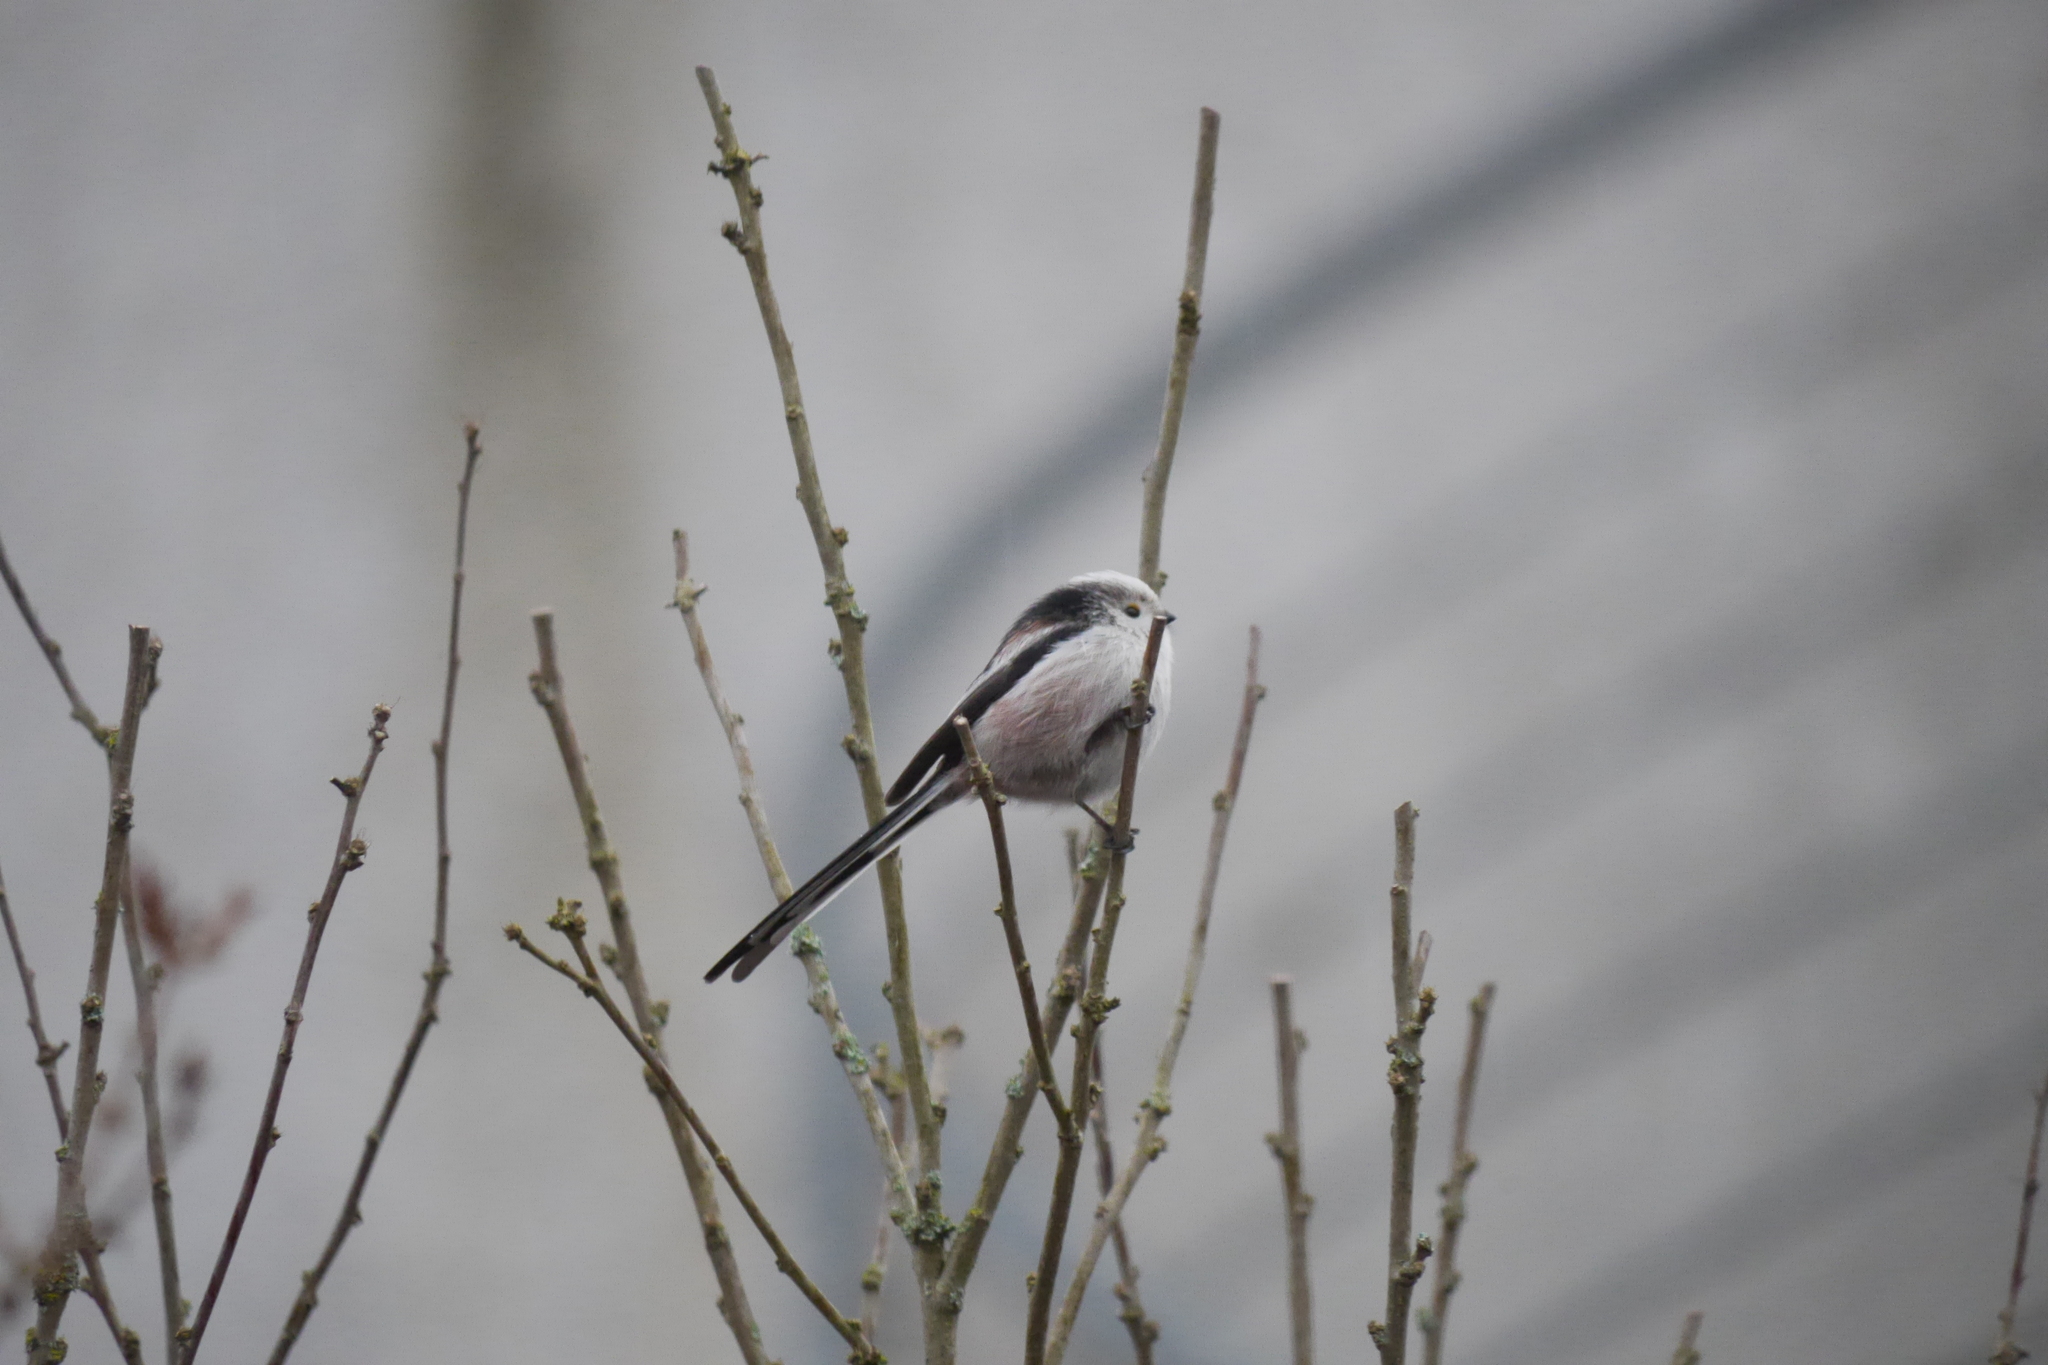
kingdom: Animalia
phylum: Chordata
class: Aves
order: Passeriformes
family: Aegithalidae
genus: Aegithalos
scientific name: Aegithalos caudatus
